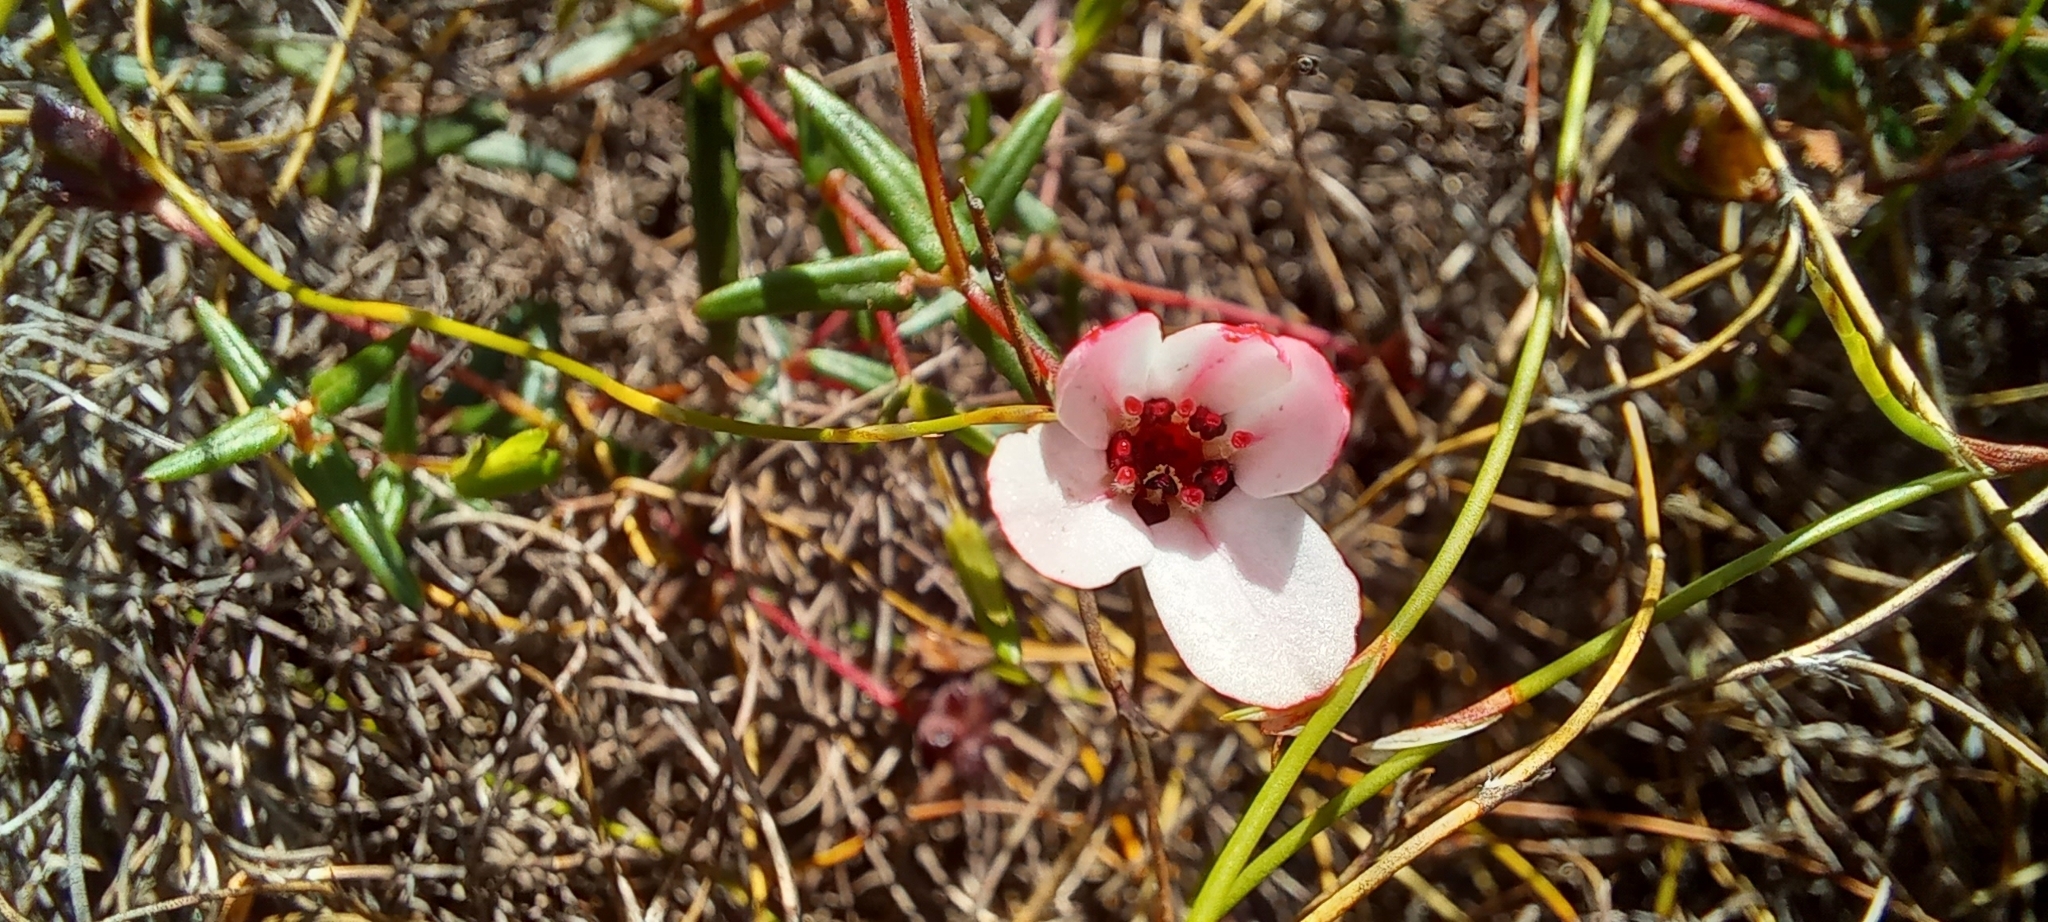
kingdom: Plantae
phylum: Tracheophyta
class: Magnoliopsida
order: Sapindales
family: Rutaceae
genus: Adenandra
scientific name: Adenandra marginata
